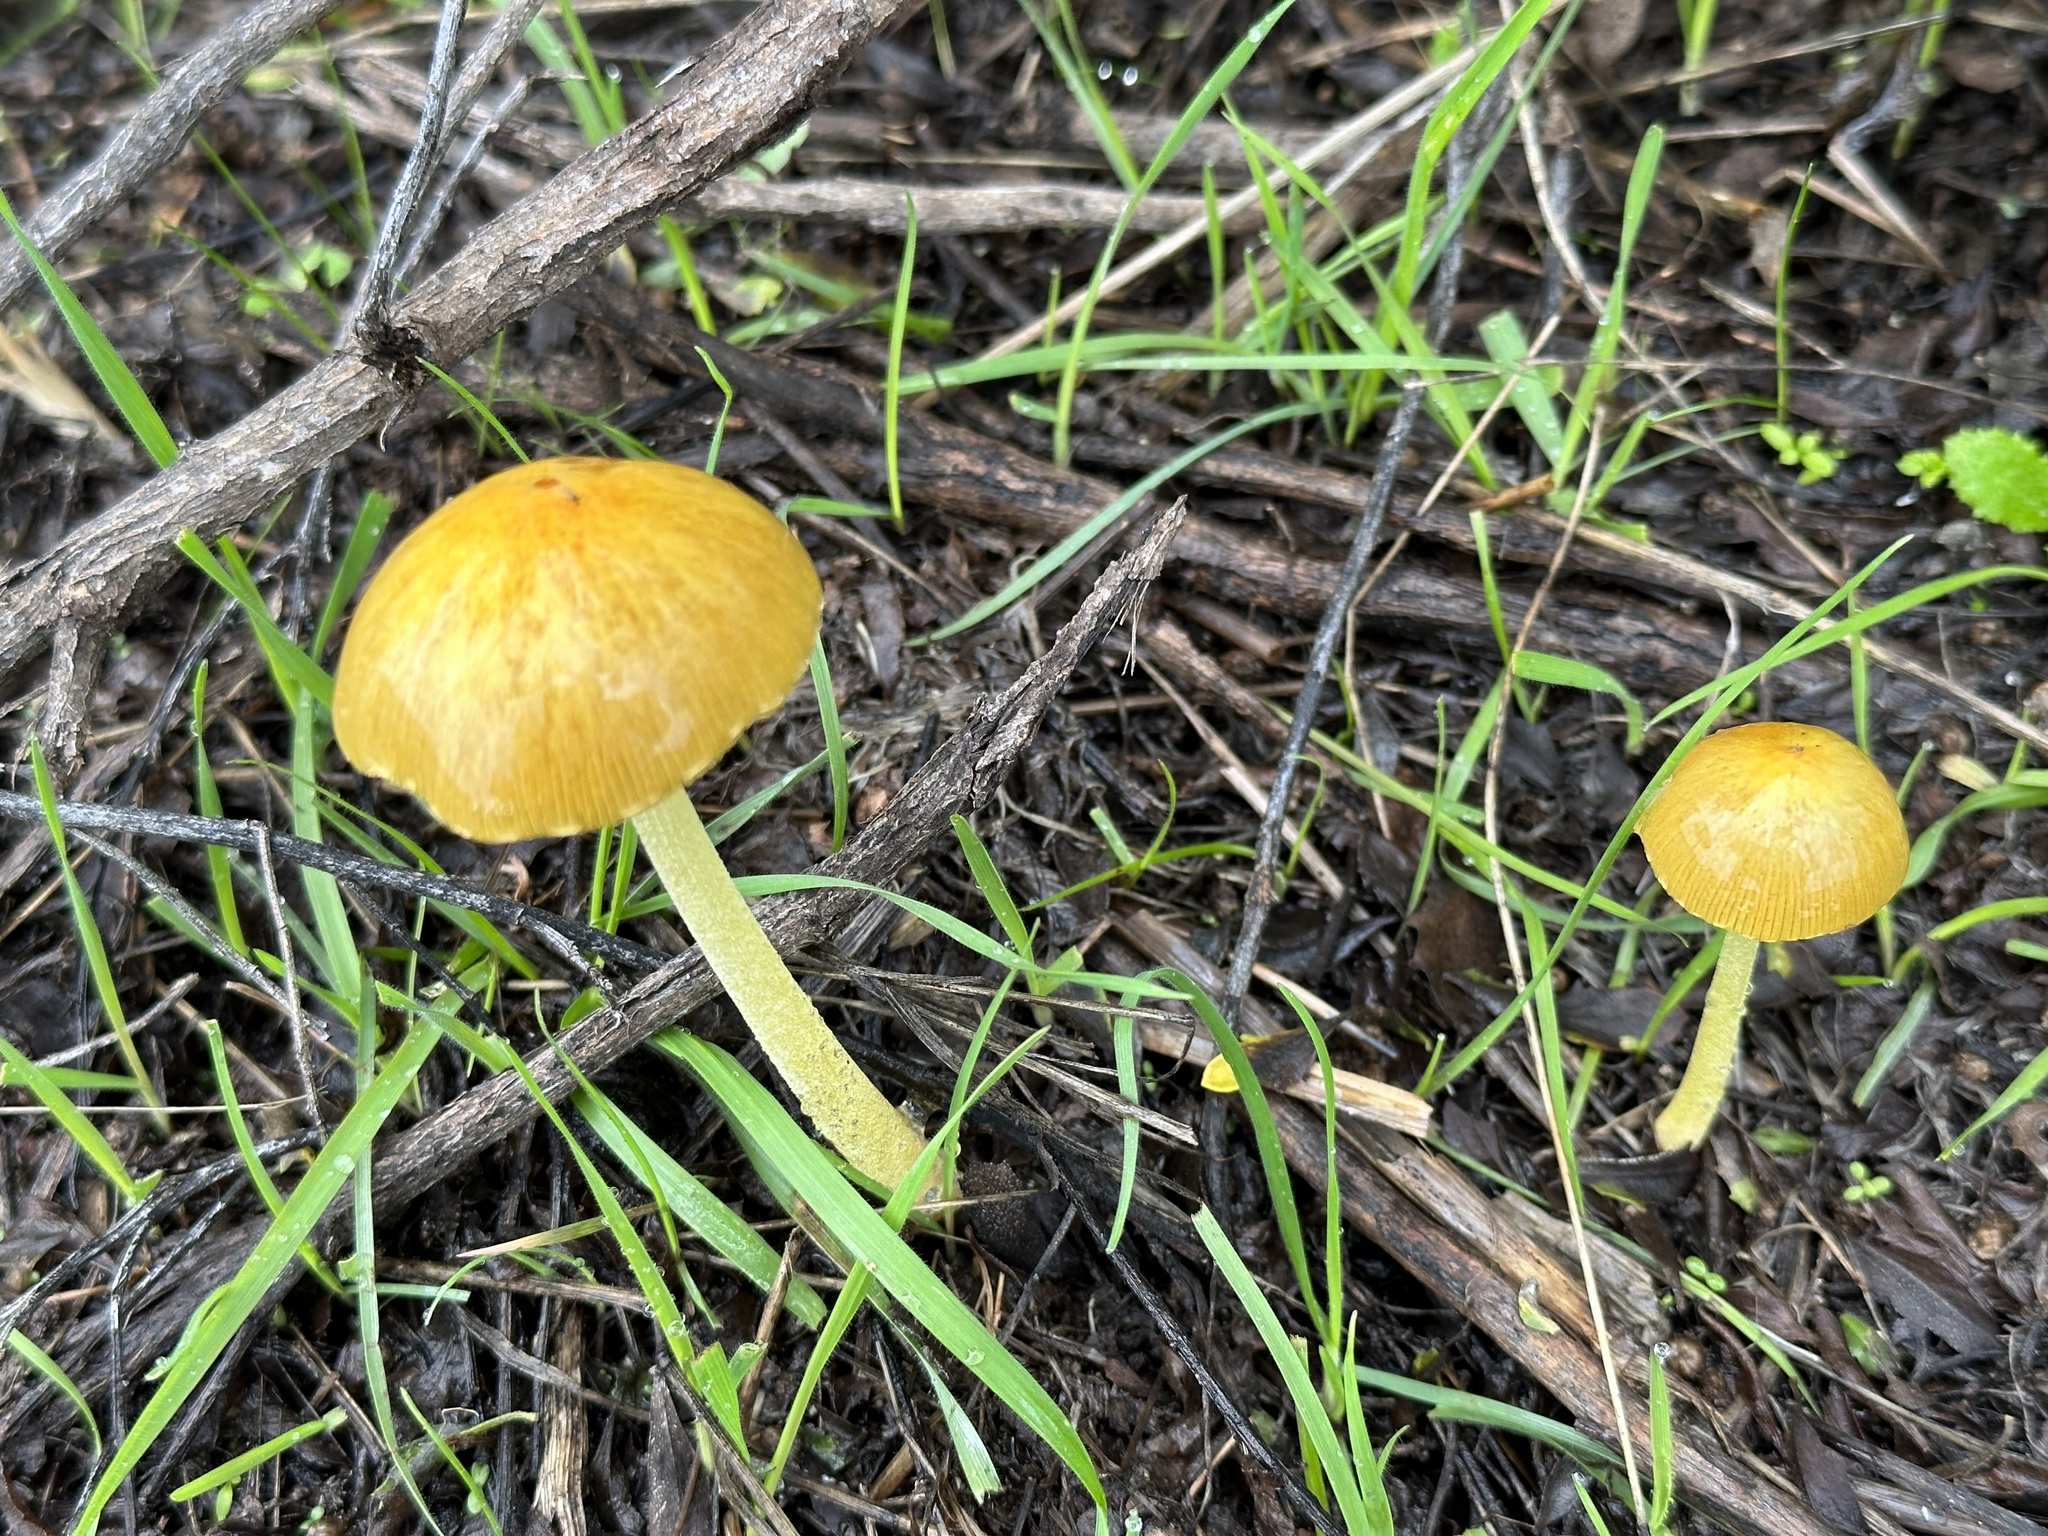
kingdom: Fungi
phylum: Basidiomycota
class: Agaricomycetes
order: Agaricales
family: Bolbitiaceae
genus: Bolbitius
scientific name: Bolbitius titubans
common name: Yellow fieldcap
